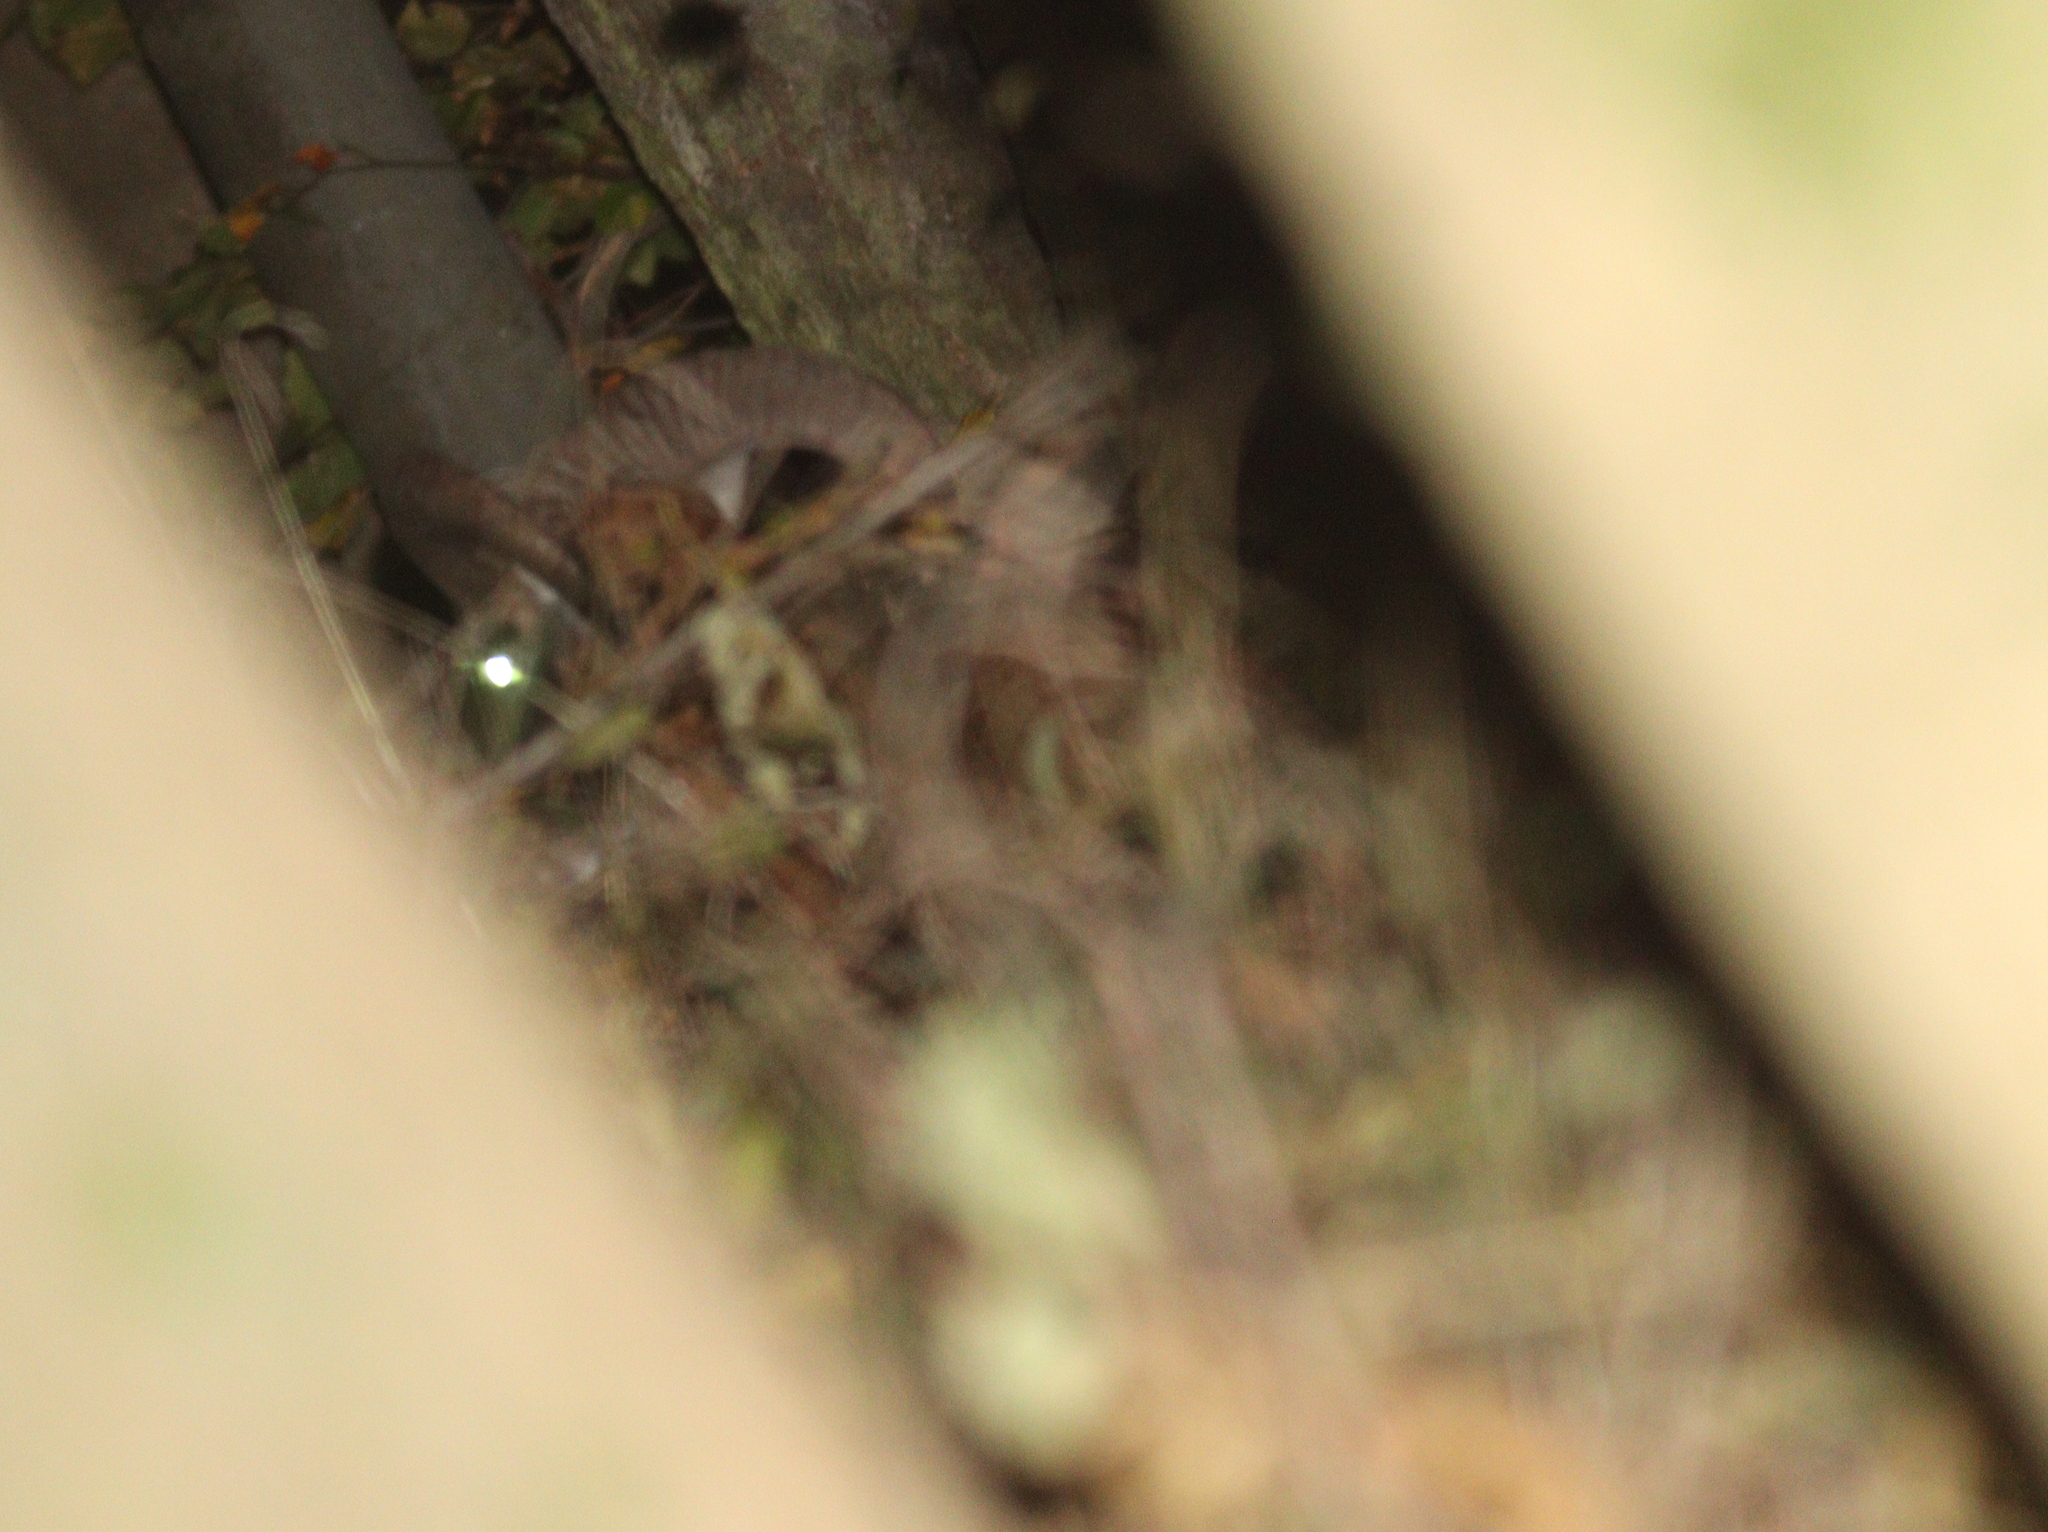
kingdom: Animalia
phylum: Chordata
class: Mammalia
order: Artiodactyla
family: Bovidae
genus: Ovis
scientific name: Ovis aries
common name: Domestic sheep
